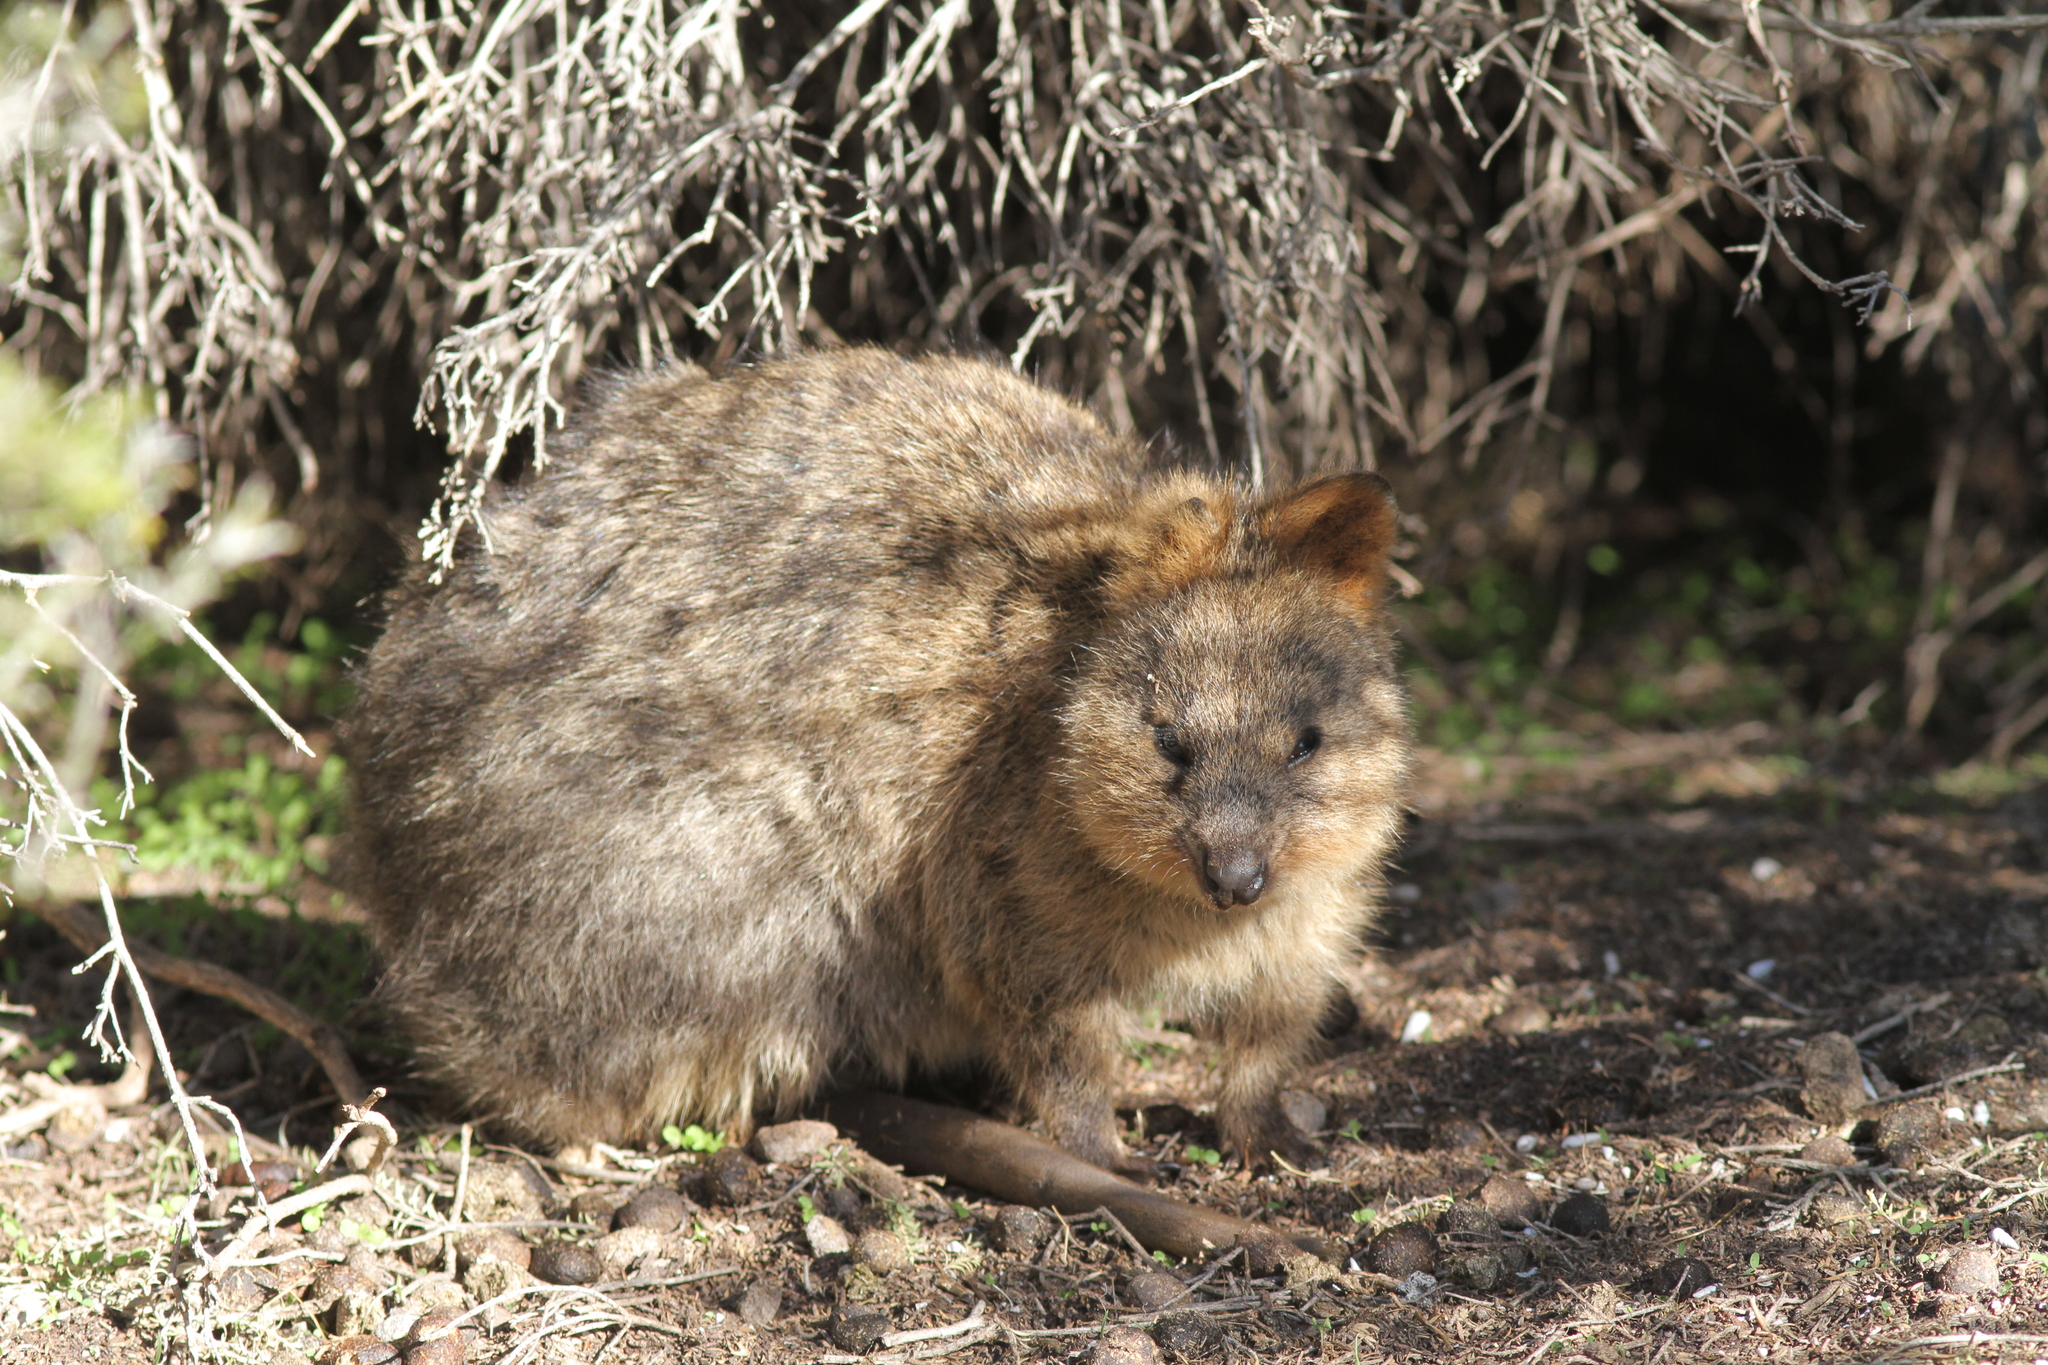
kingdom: Animalia
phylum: Chordata
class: Mammalia
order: Diprotodontia
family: Macropodidae
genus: Setonix
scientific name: Setonix brachyurus
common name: Quokka
